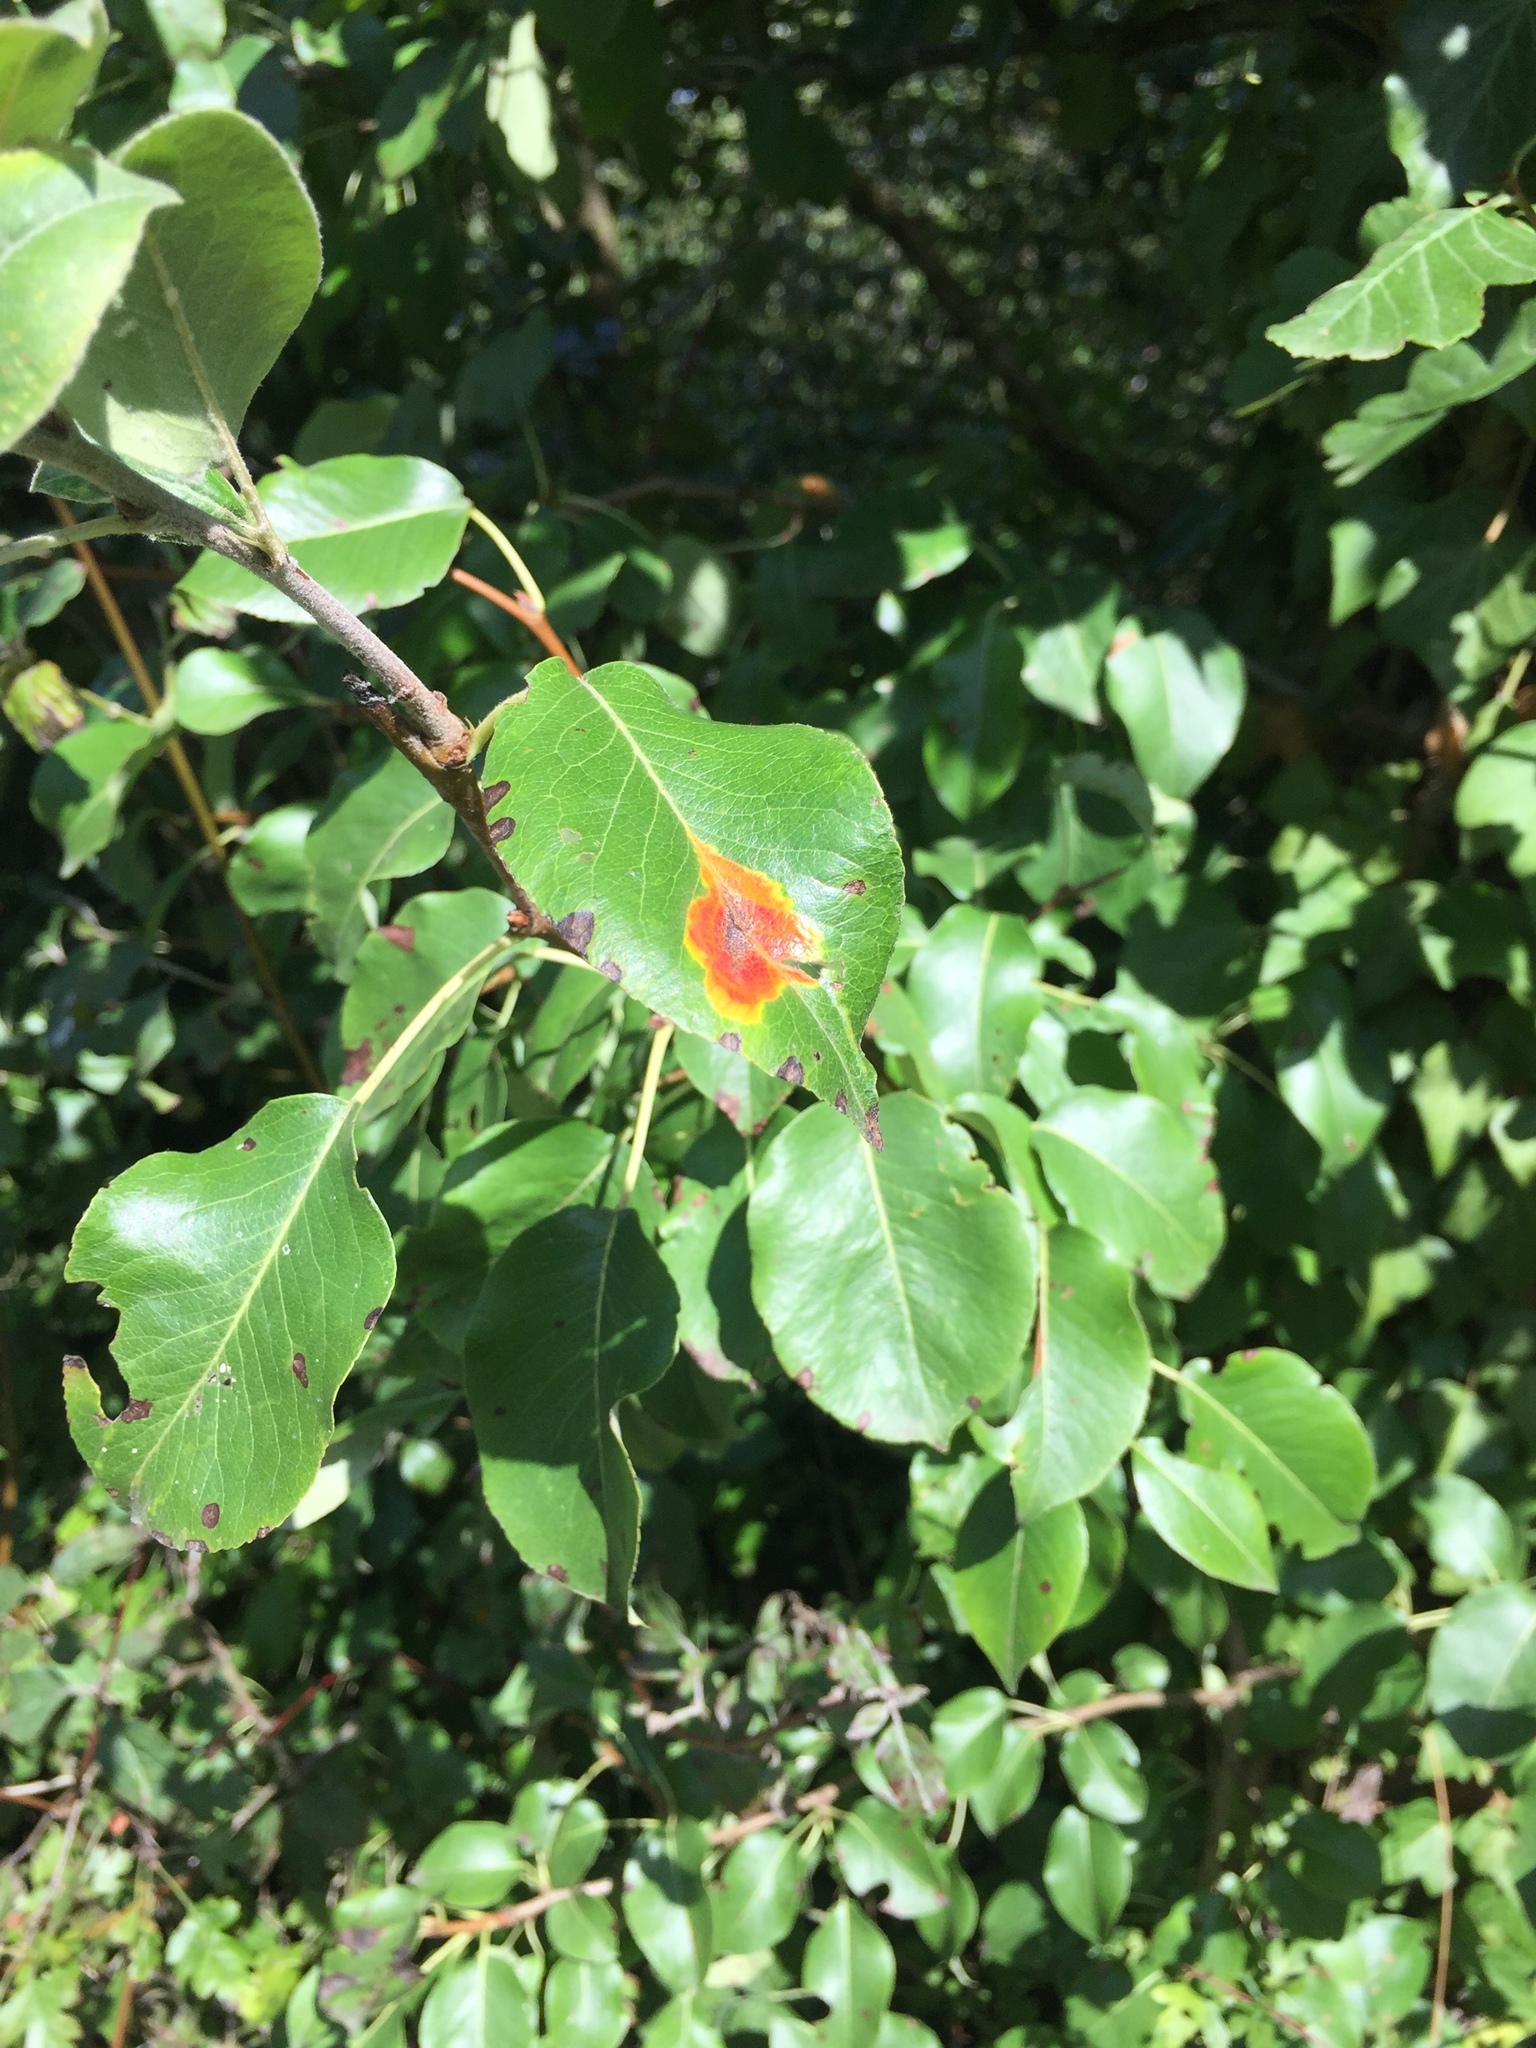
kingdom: Fungi
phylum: Basidiomycota
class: Pucciniomycetes
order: Pucciniales
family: Gymnosporangiaceae
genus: Gymnosporangium
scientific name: Gymnosporangium sabinae
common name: Pear trellis rust fungus
